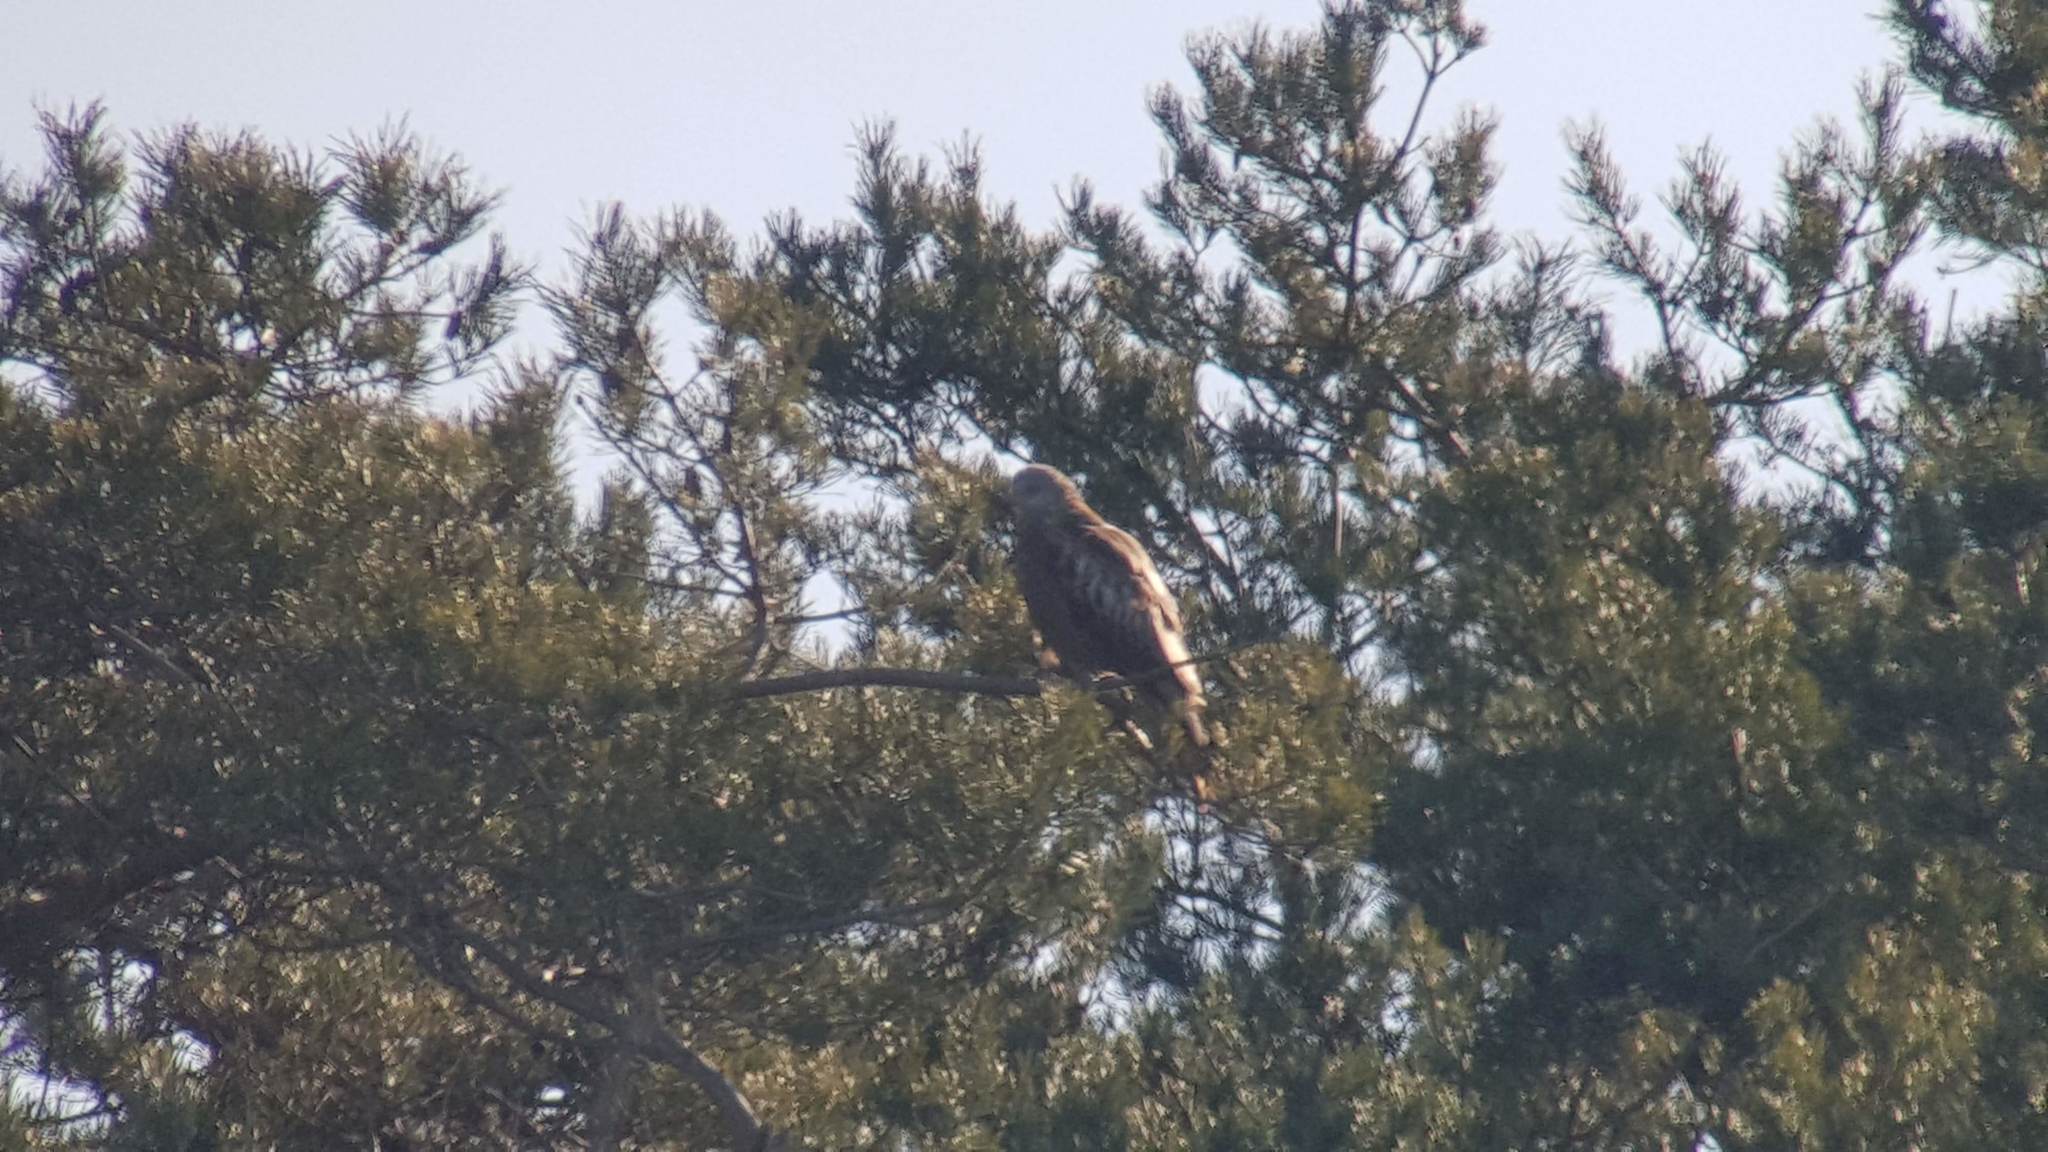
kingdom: Animalia
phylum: Chordata
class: Aves
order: Accipitriformes
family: Accipitridae
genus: Milvus
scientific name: Milvus milvus
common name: Red kite
